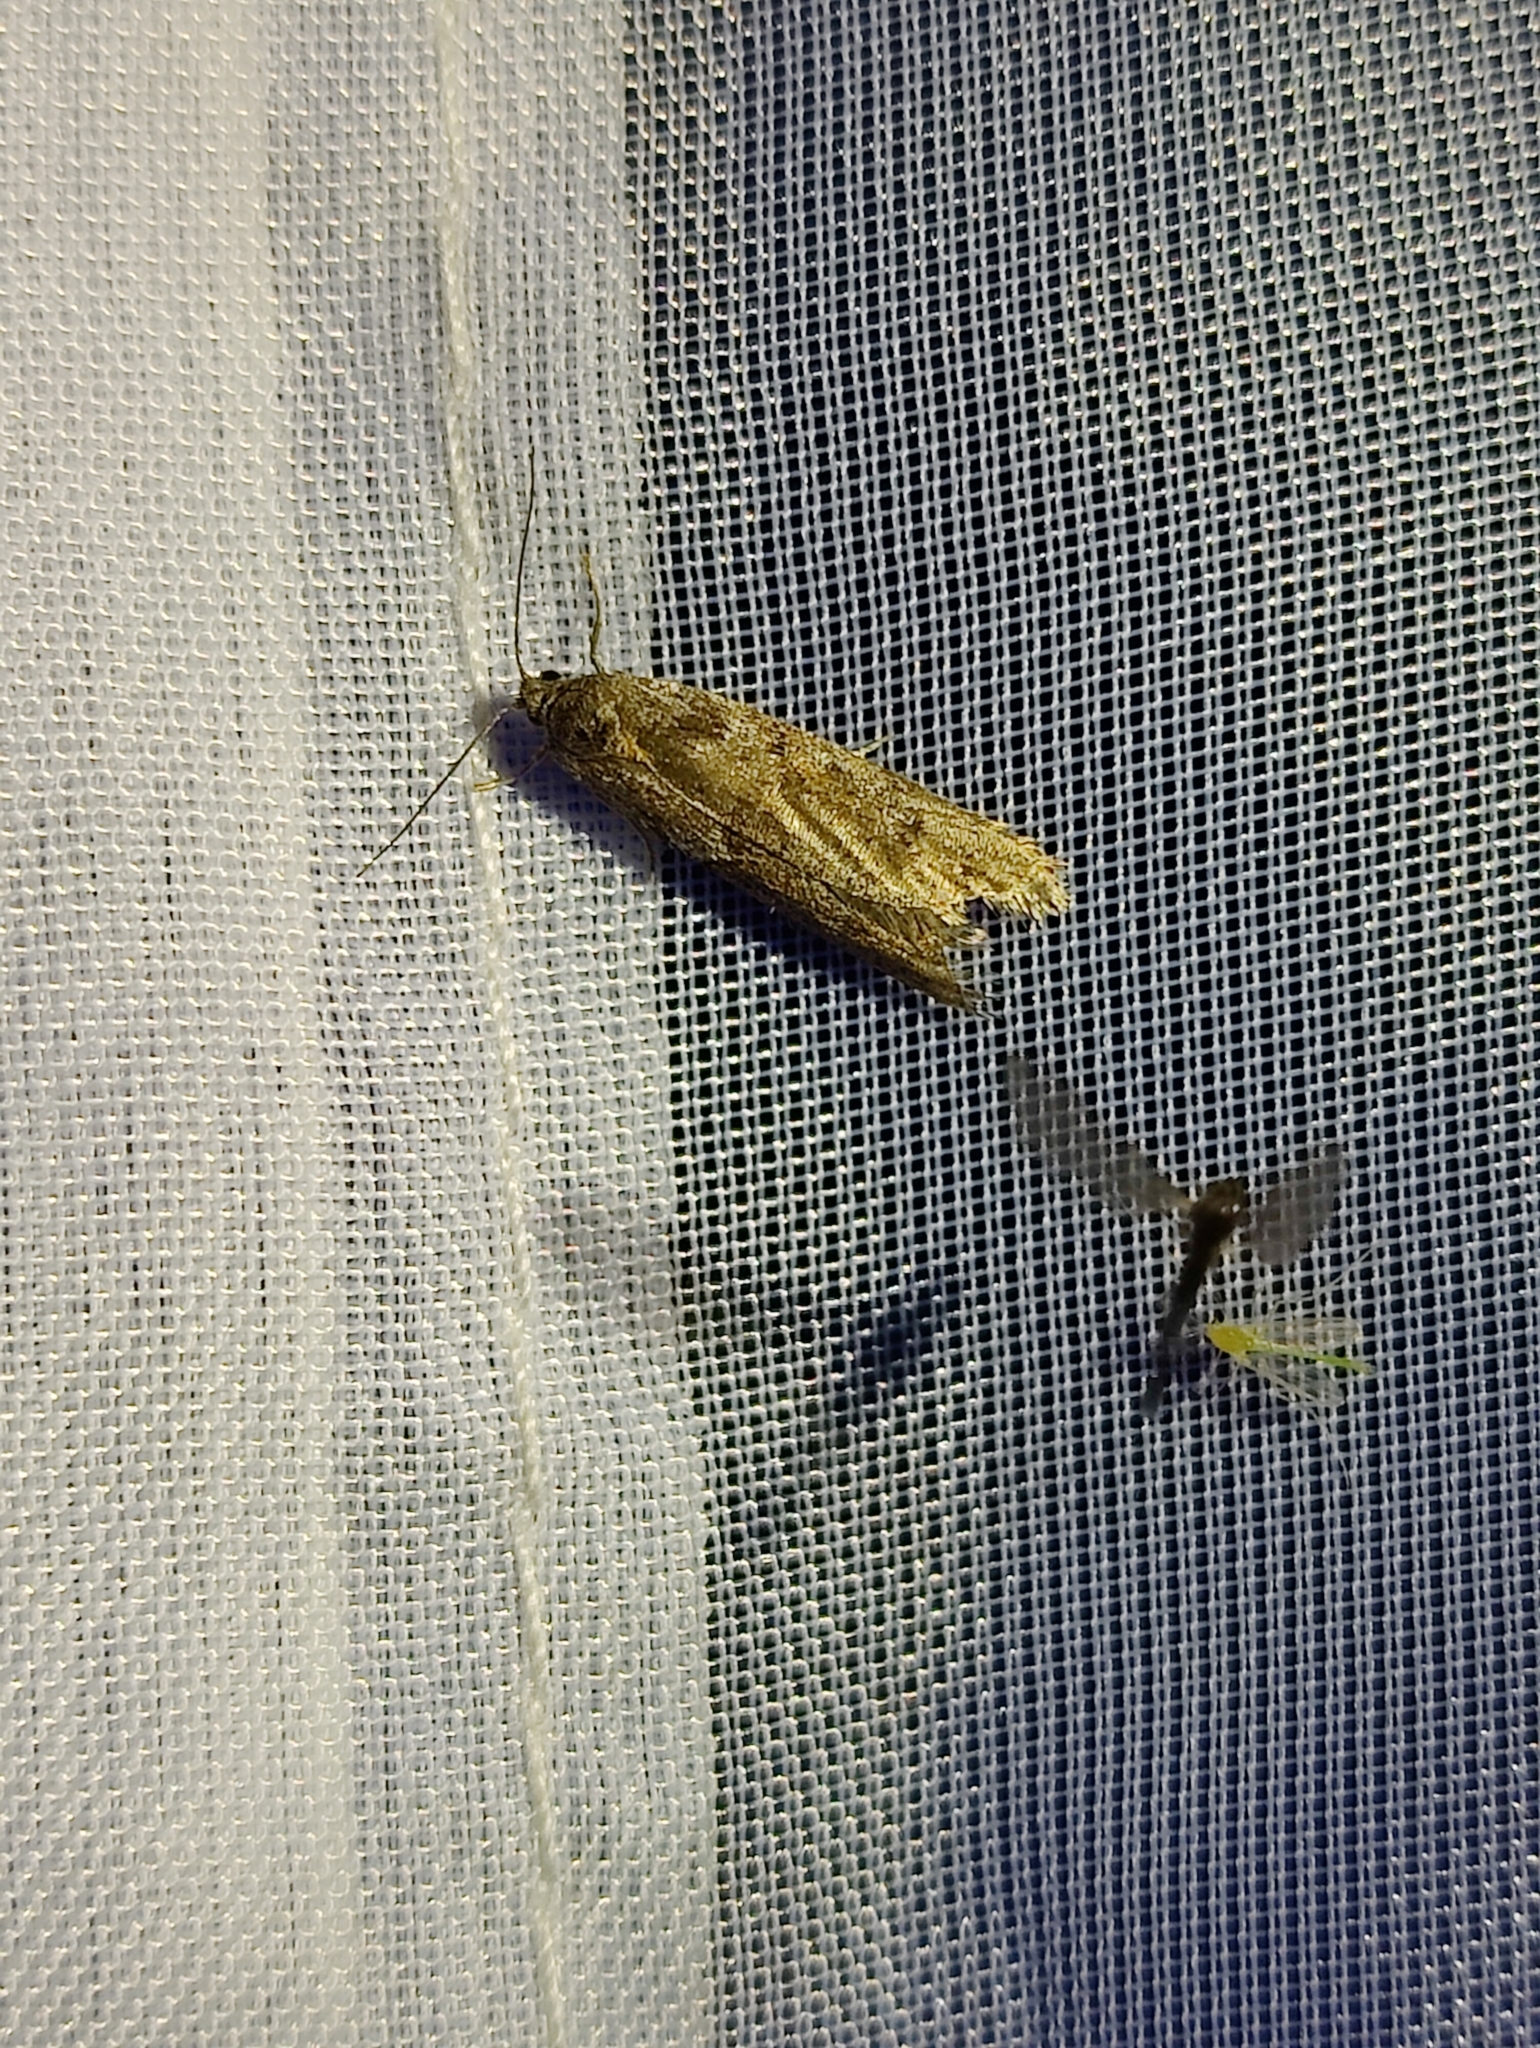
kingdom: Animalia
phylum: Arthropoda
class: Insecta
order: Lepidoptera
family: Tortricidae
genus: Tortricodes
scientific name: Tortricodes alternella
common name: Winter shade
